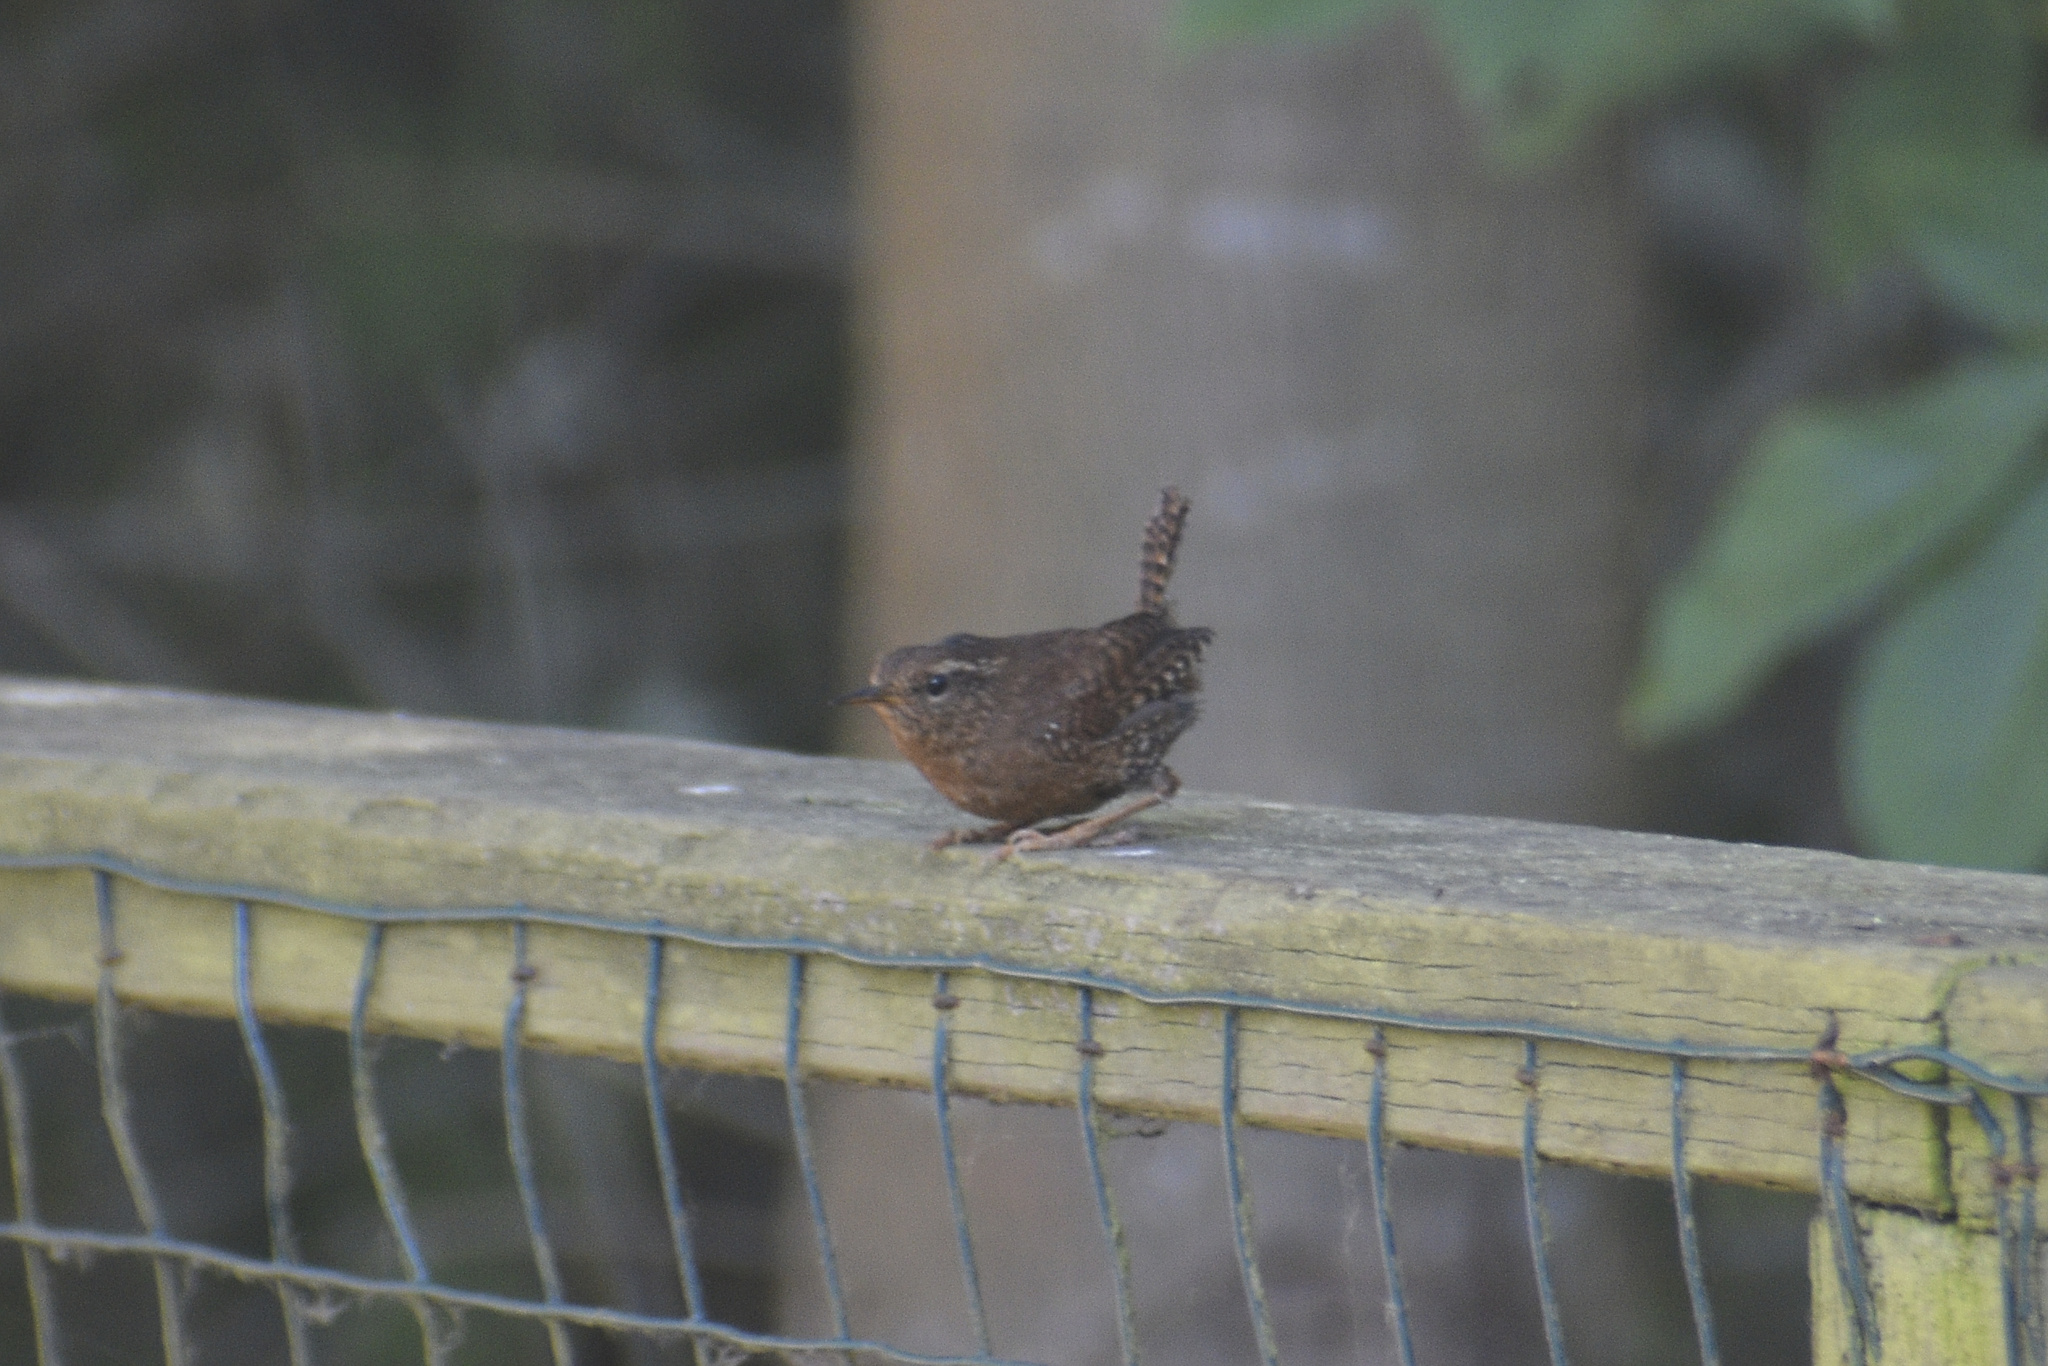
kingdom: Animalia
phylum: Chordata
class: Aves
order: Passeriformes
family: Troglodytidae
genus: Troglodytes
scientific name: Troglodytes pacificus
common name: Pacific wren
